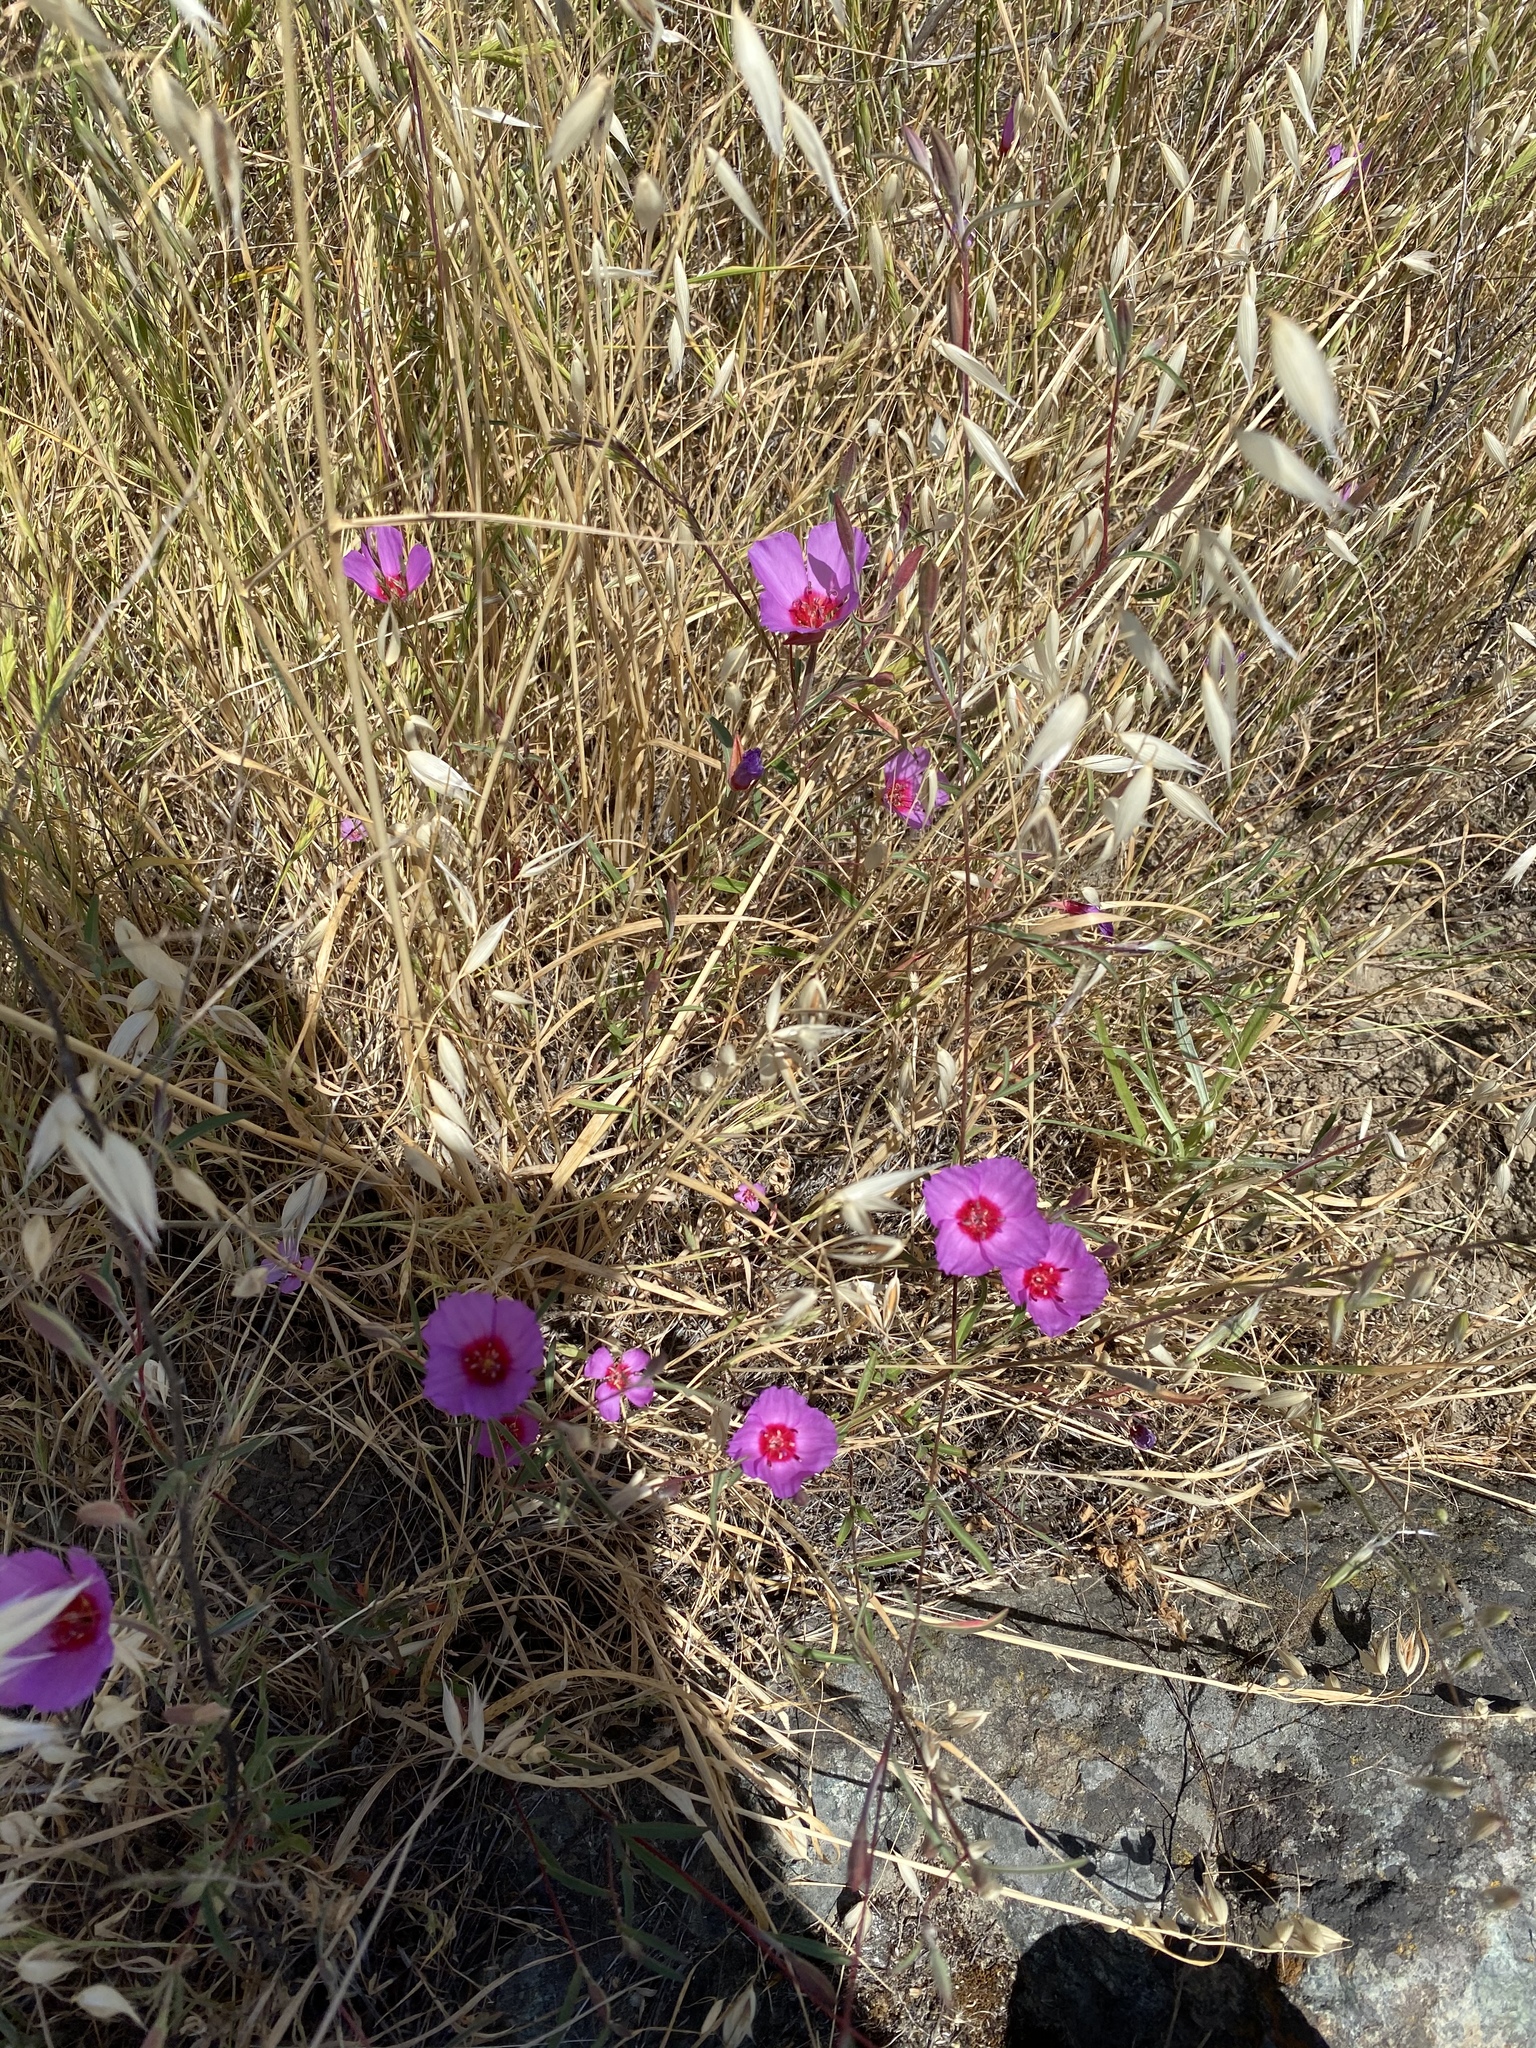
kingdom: Plantae
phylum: Tracheophyta
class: Magnoliopsida
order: Myrtales
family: Onagraceae
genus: Clarkia
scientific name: Clarkia rubicunda
